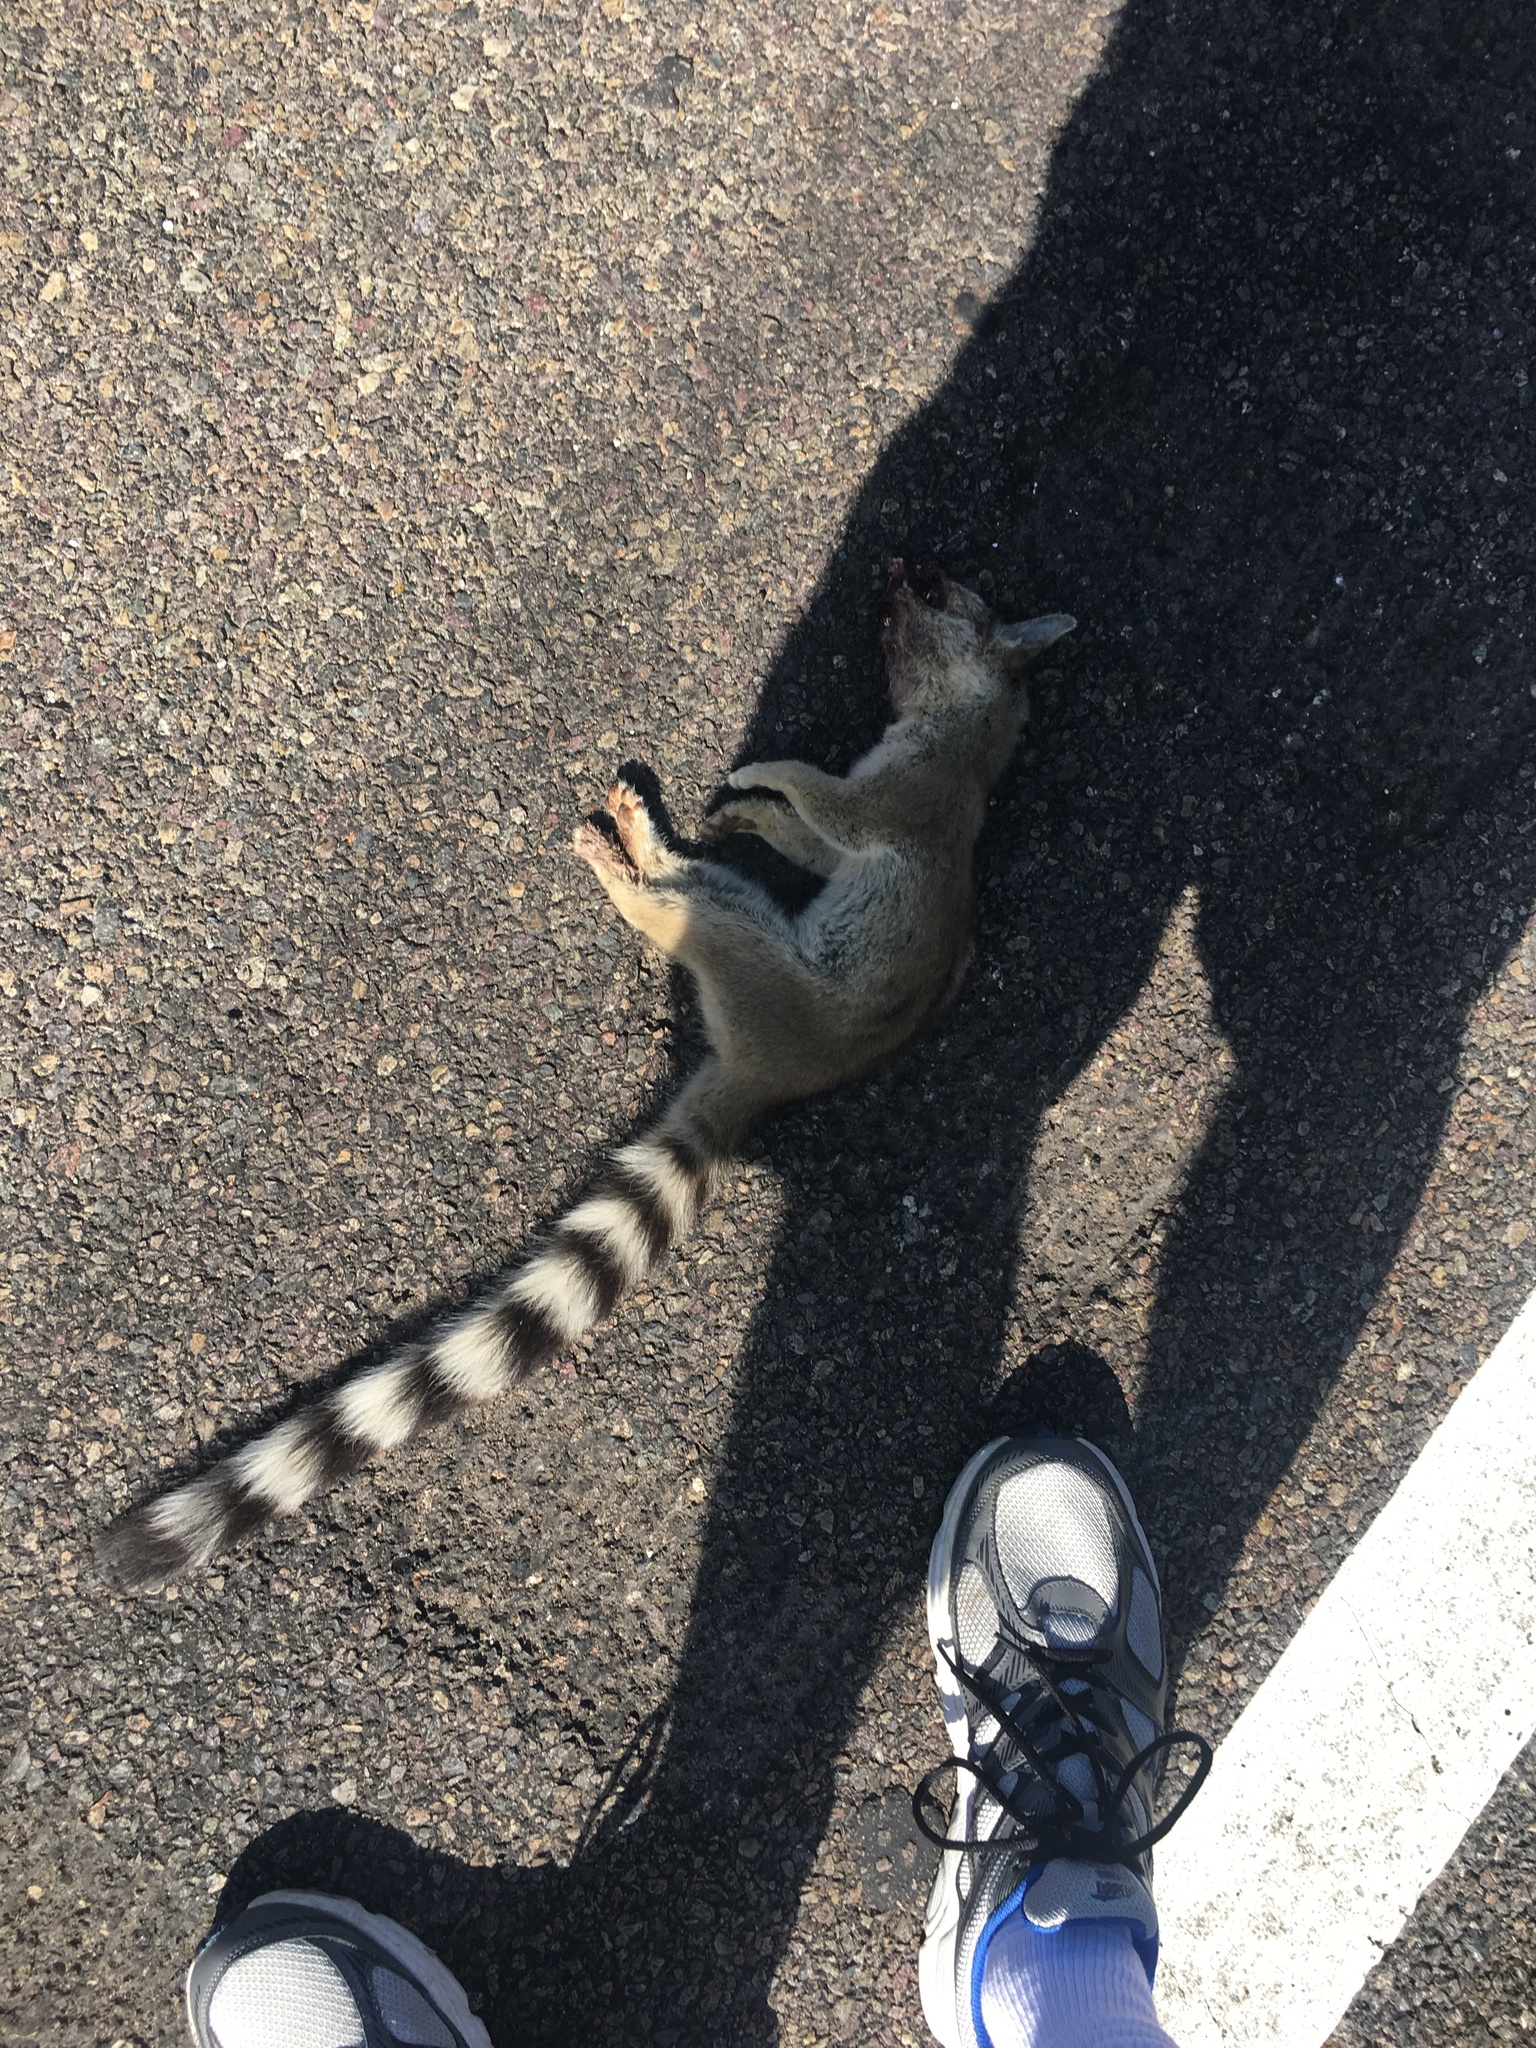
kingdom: Animalia
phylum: Chordata
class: Mammalia
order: Carnivora
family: Procyonidae
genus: Bassariscus
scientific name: Bassariscus astutus
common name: Ringtail
